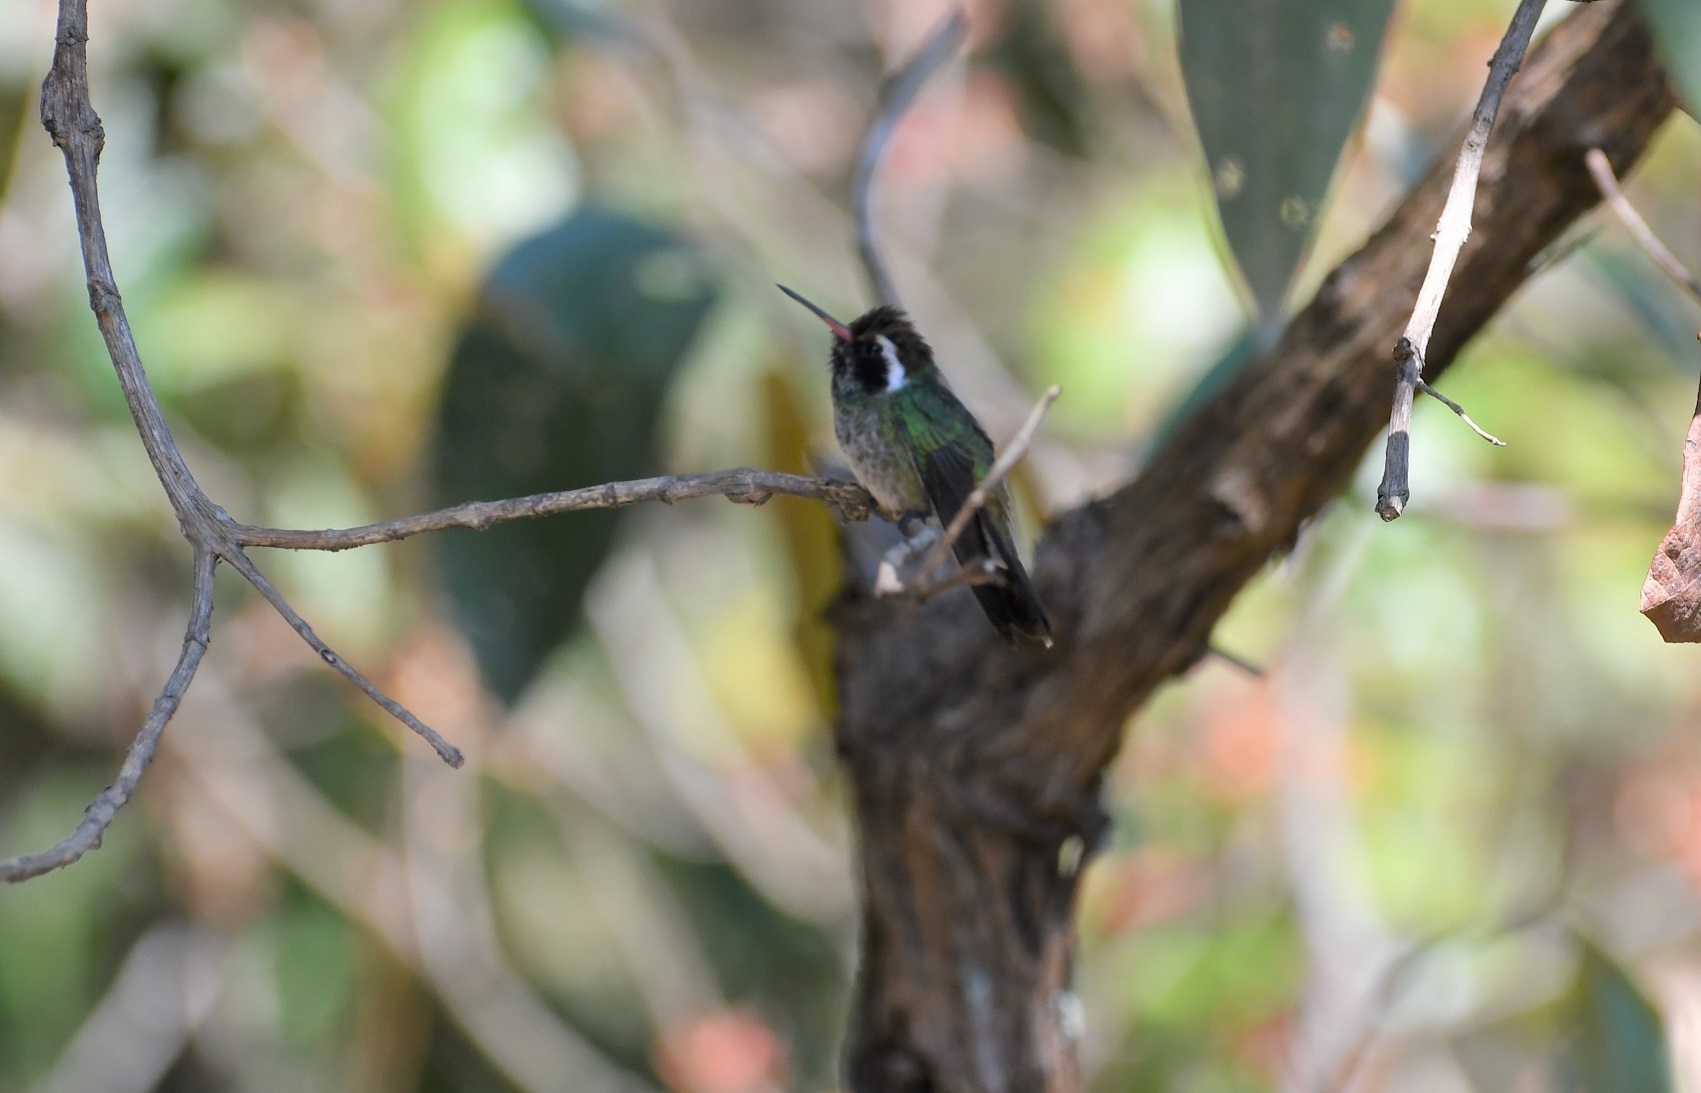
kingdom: Animalia
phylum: Chordata
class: Aves
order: Apodiformes
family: Trochilidae
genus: Basilinna
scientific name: Basilinna leucotis
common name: White-eared hummingbird
